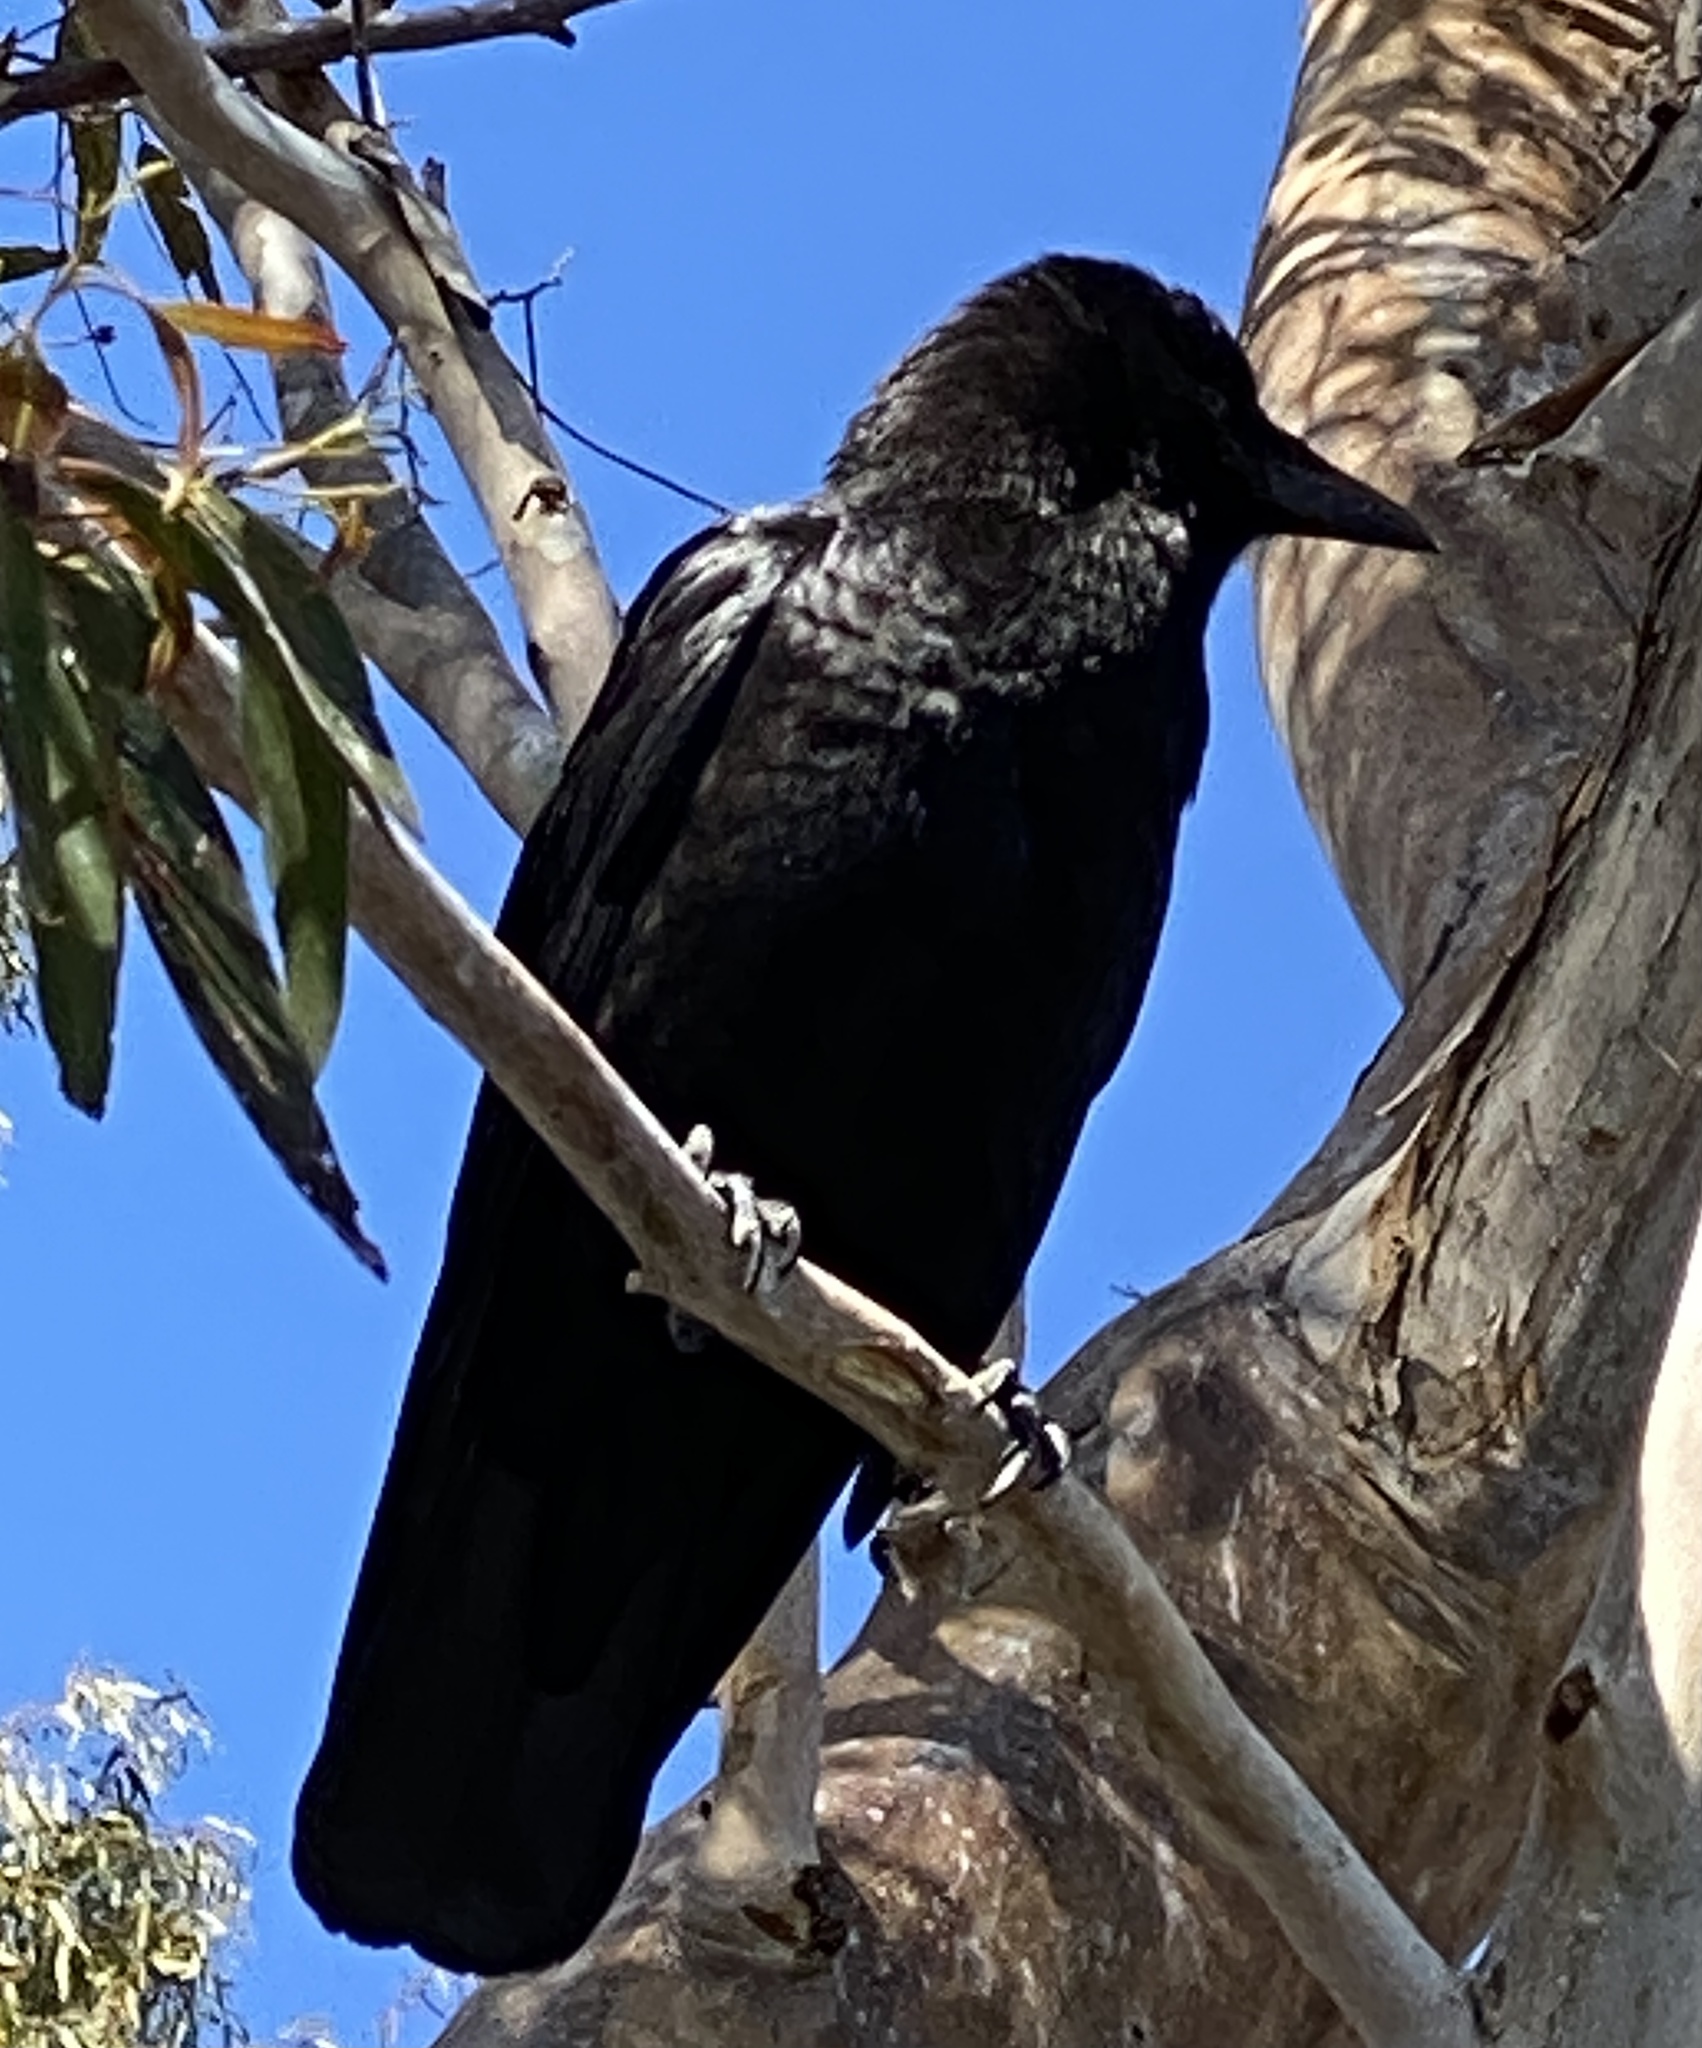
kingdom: Animalia
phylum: Chordata
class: Aves
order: Passeriformes
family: Corvidae
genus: Corvus
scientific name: Corvus brachyrhynchos
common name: American crow
